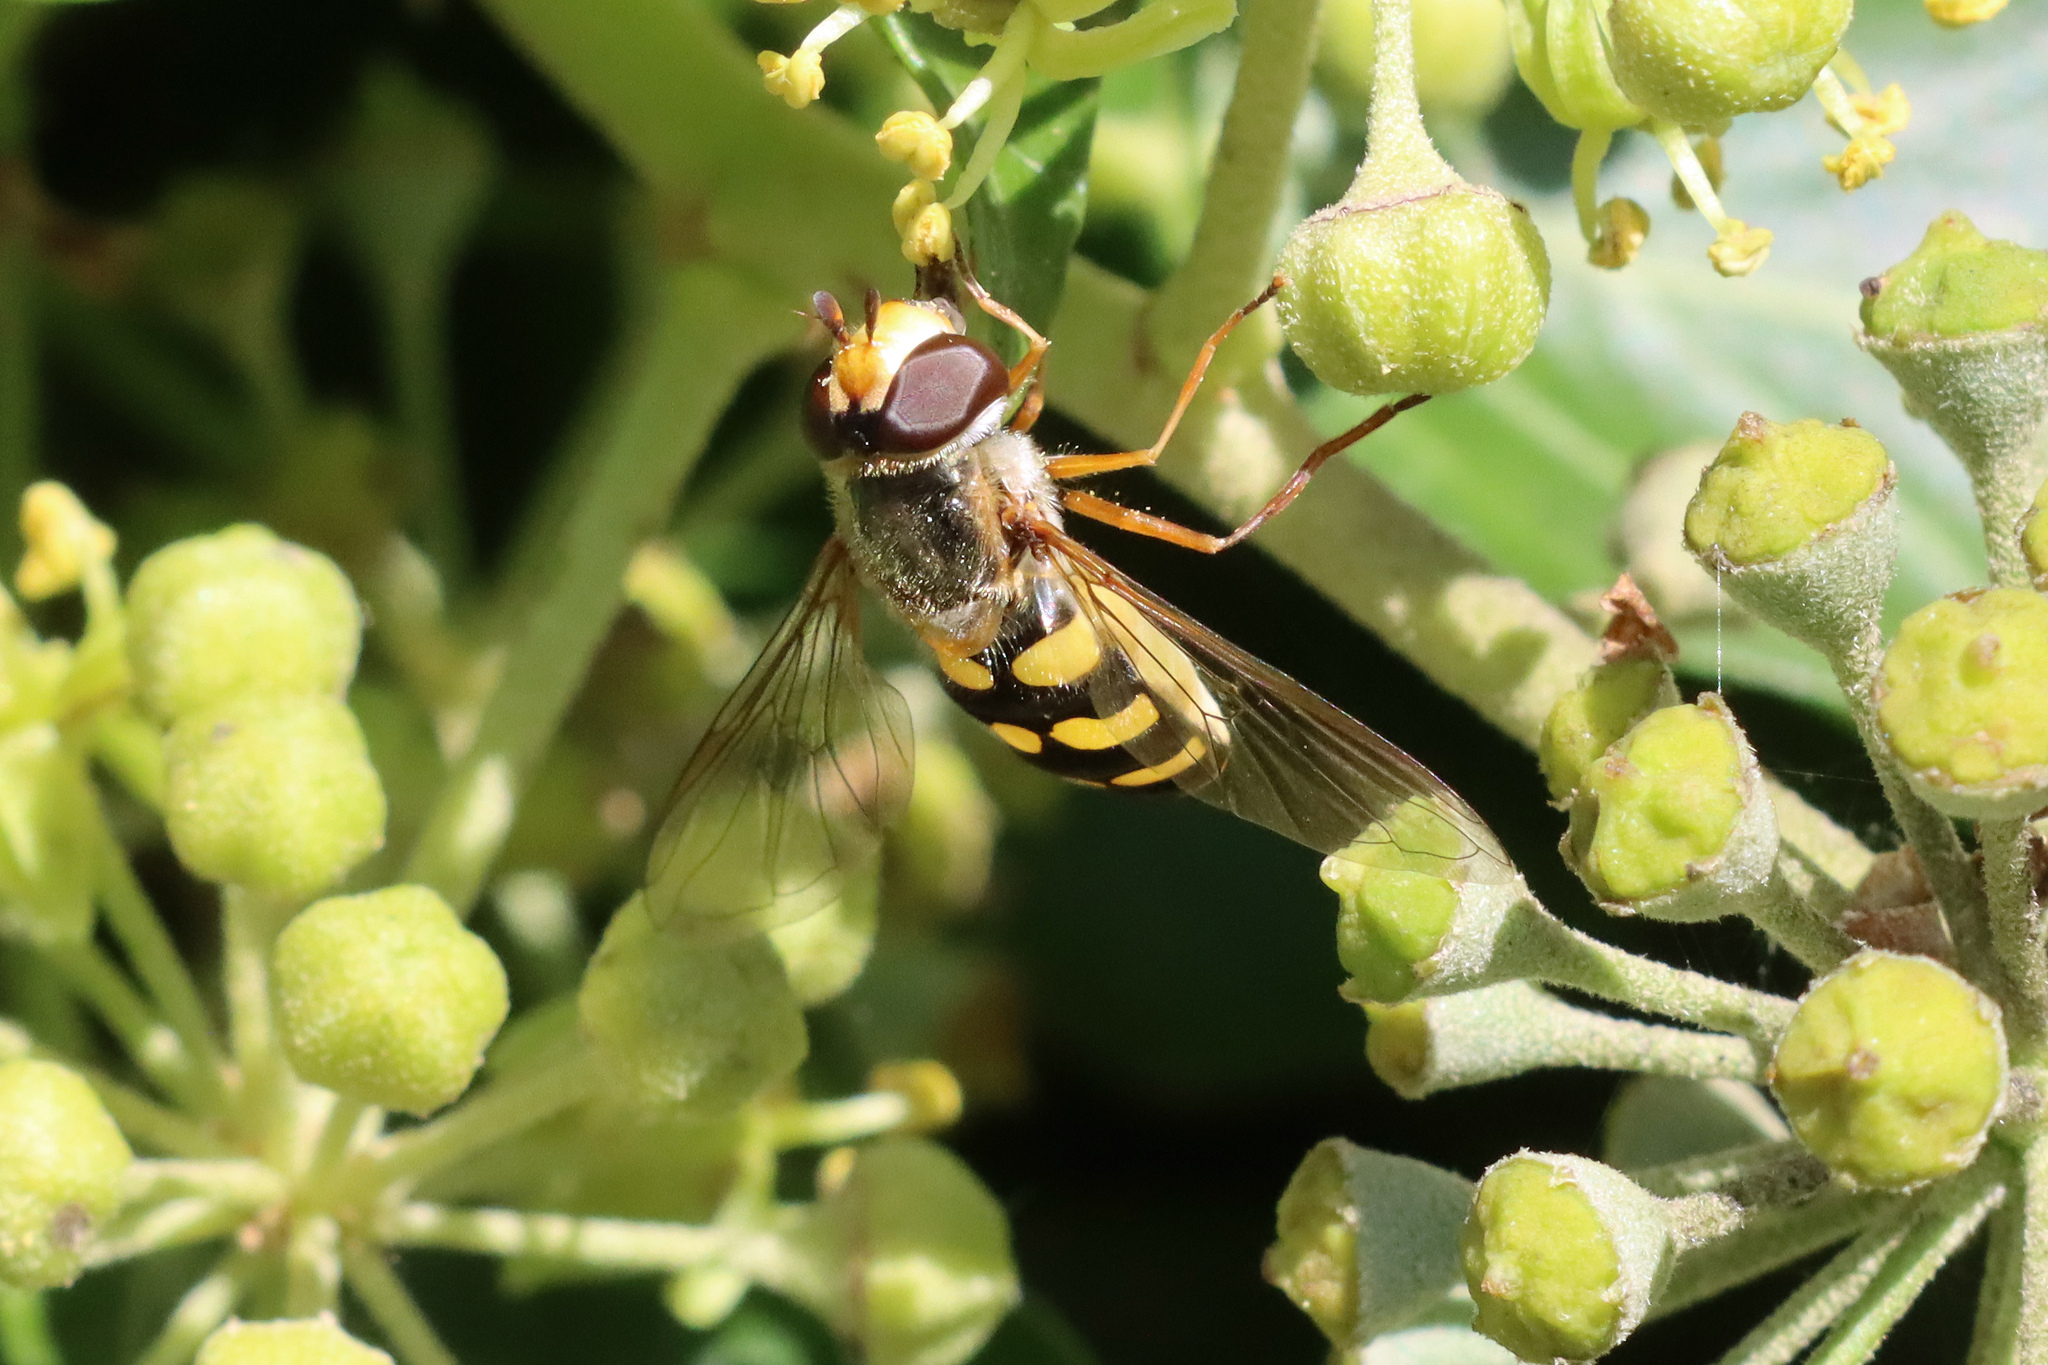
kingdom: Animalia
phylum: Arthropoda
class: Insecta
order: Diptera
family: Syrphidae
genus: Eupeodes
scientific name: Eupeodes luniger
